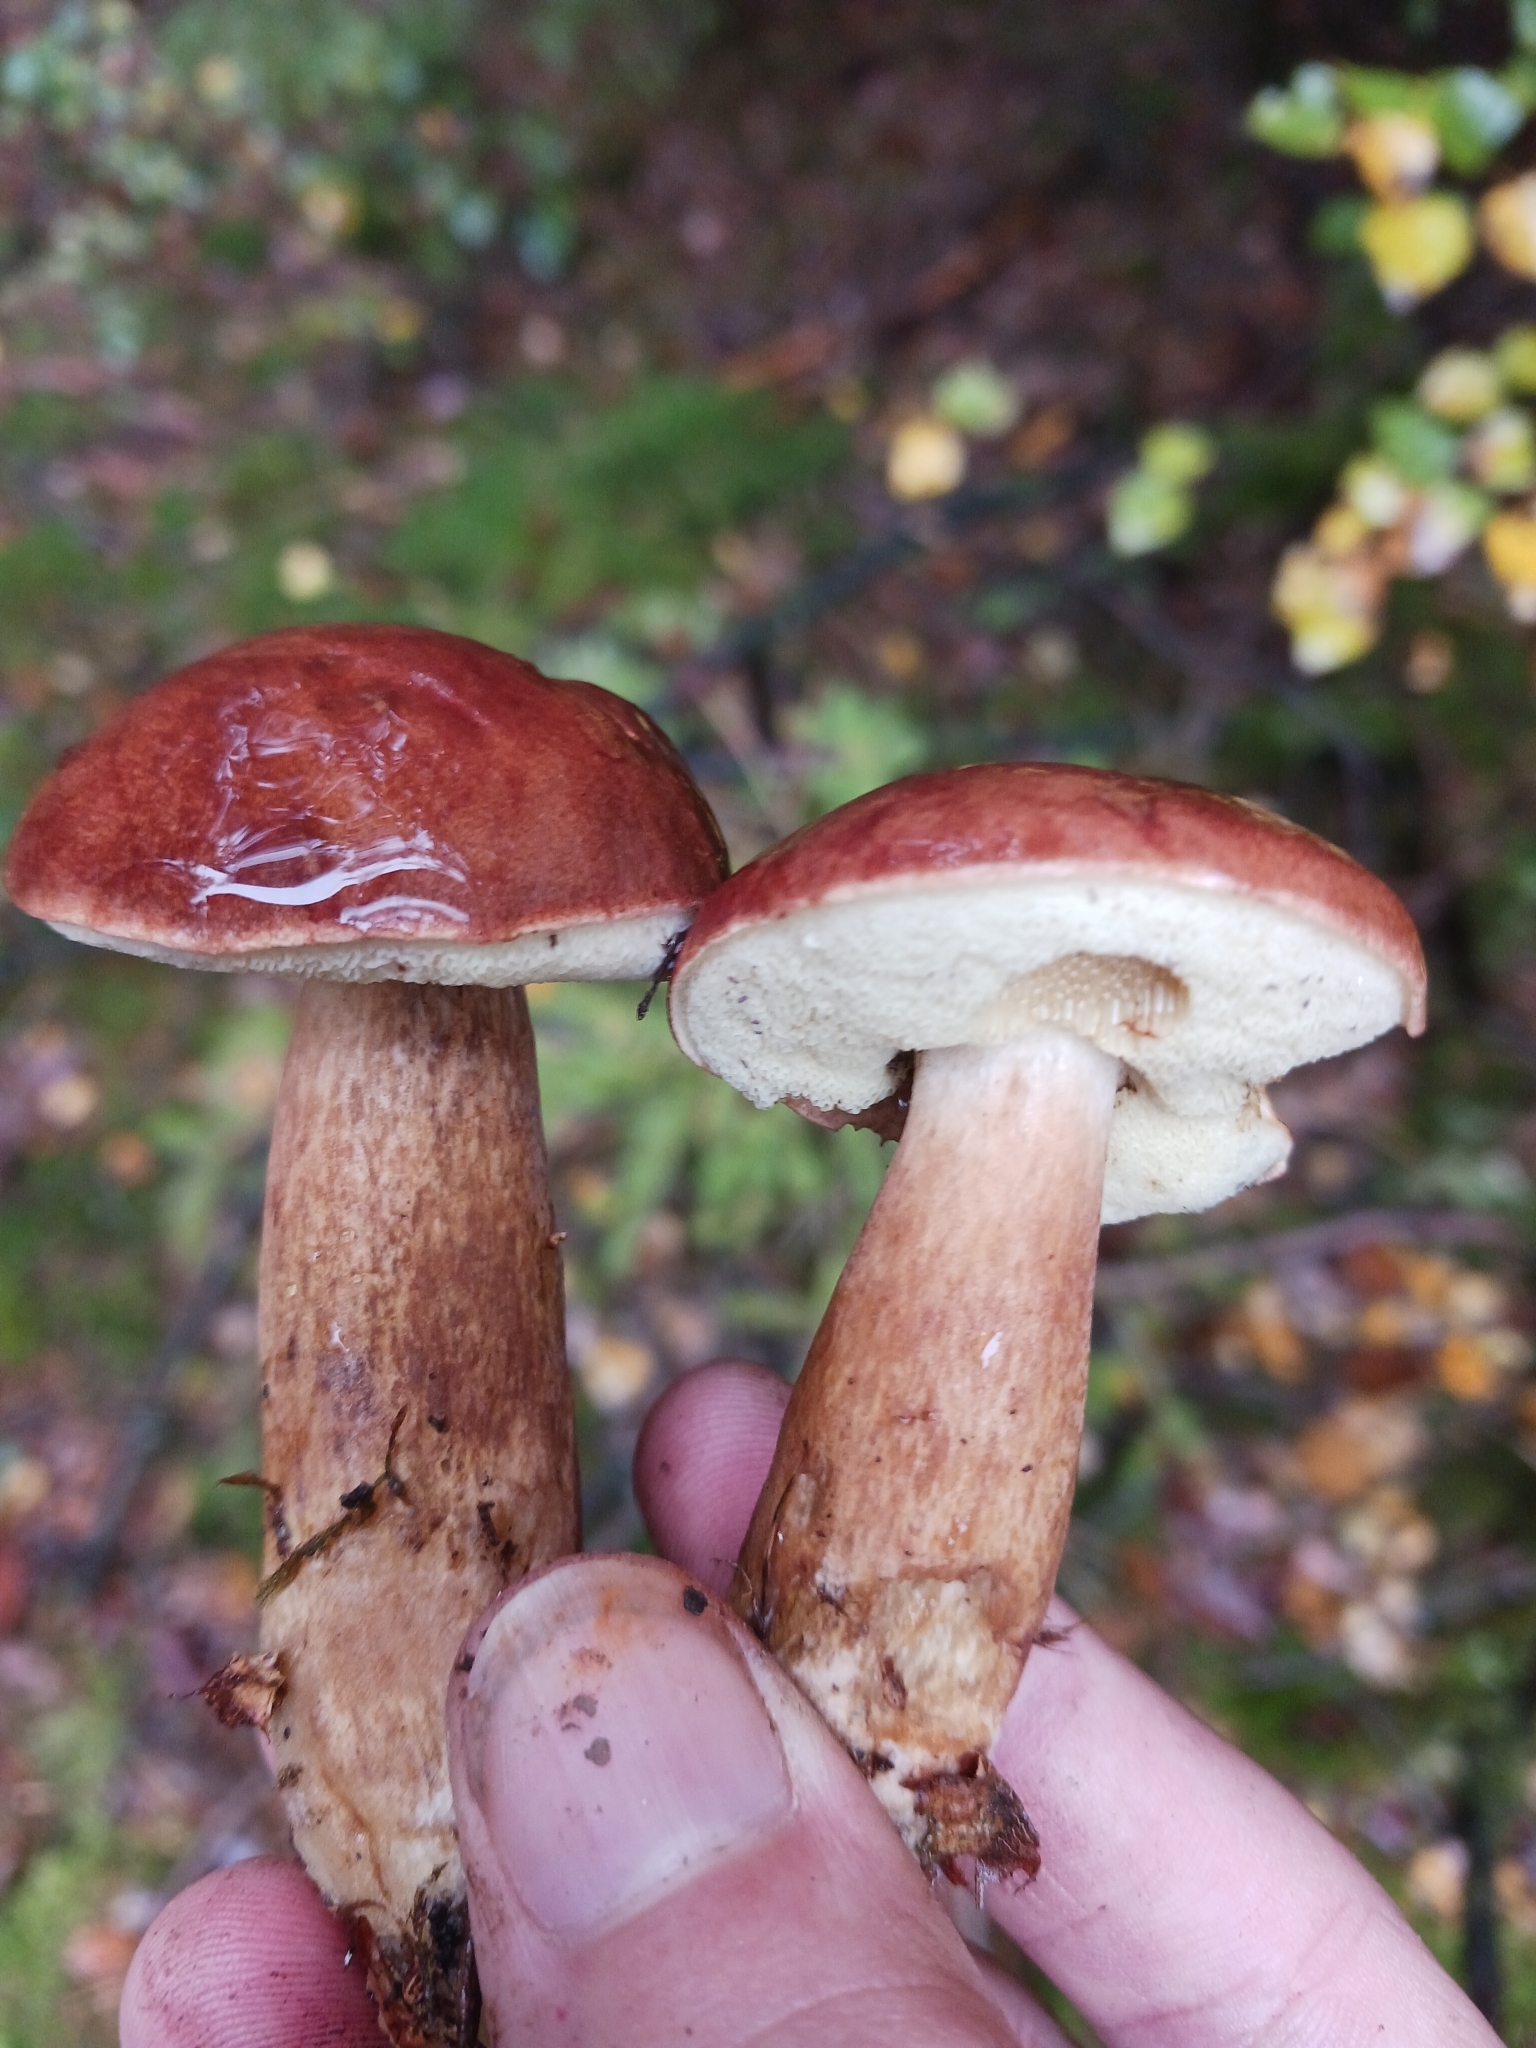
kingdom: Fungi
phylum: Basidiomycota
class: Agaricomycetes
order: Boletales
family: Boletaceae
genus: Imleria
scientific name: Imleria badia
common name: Bay bolete
